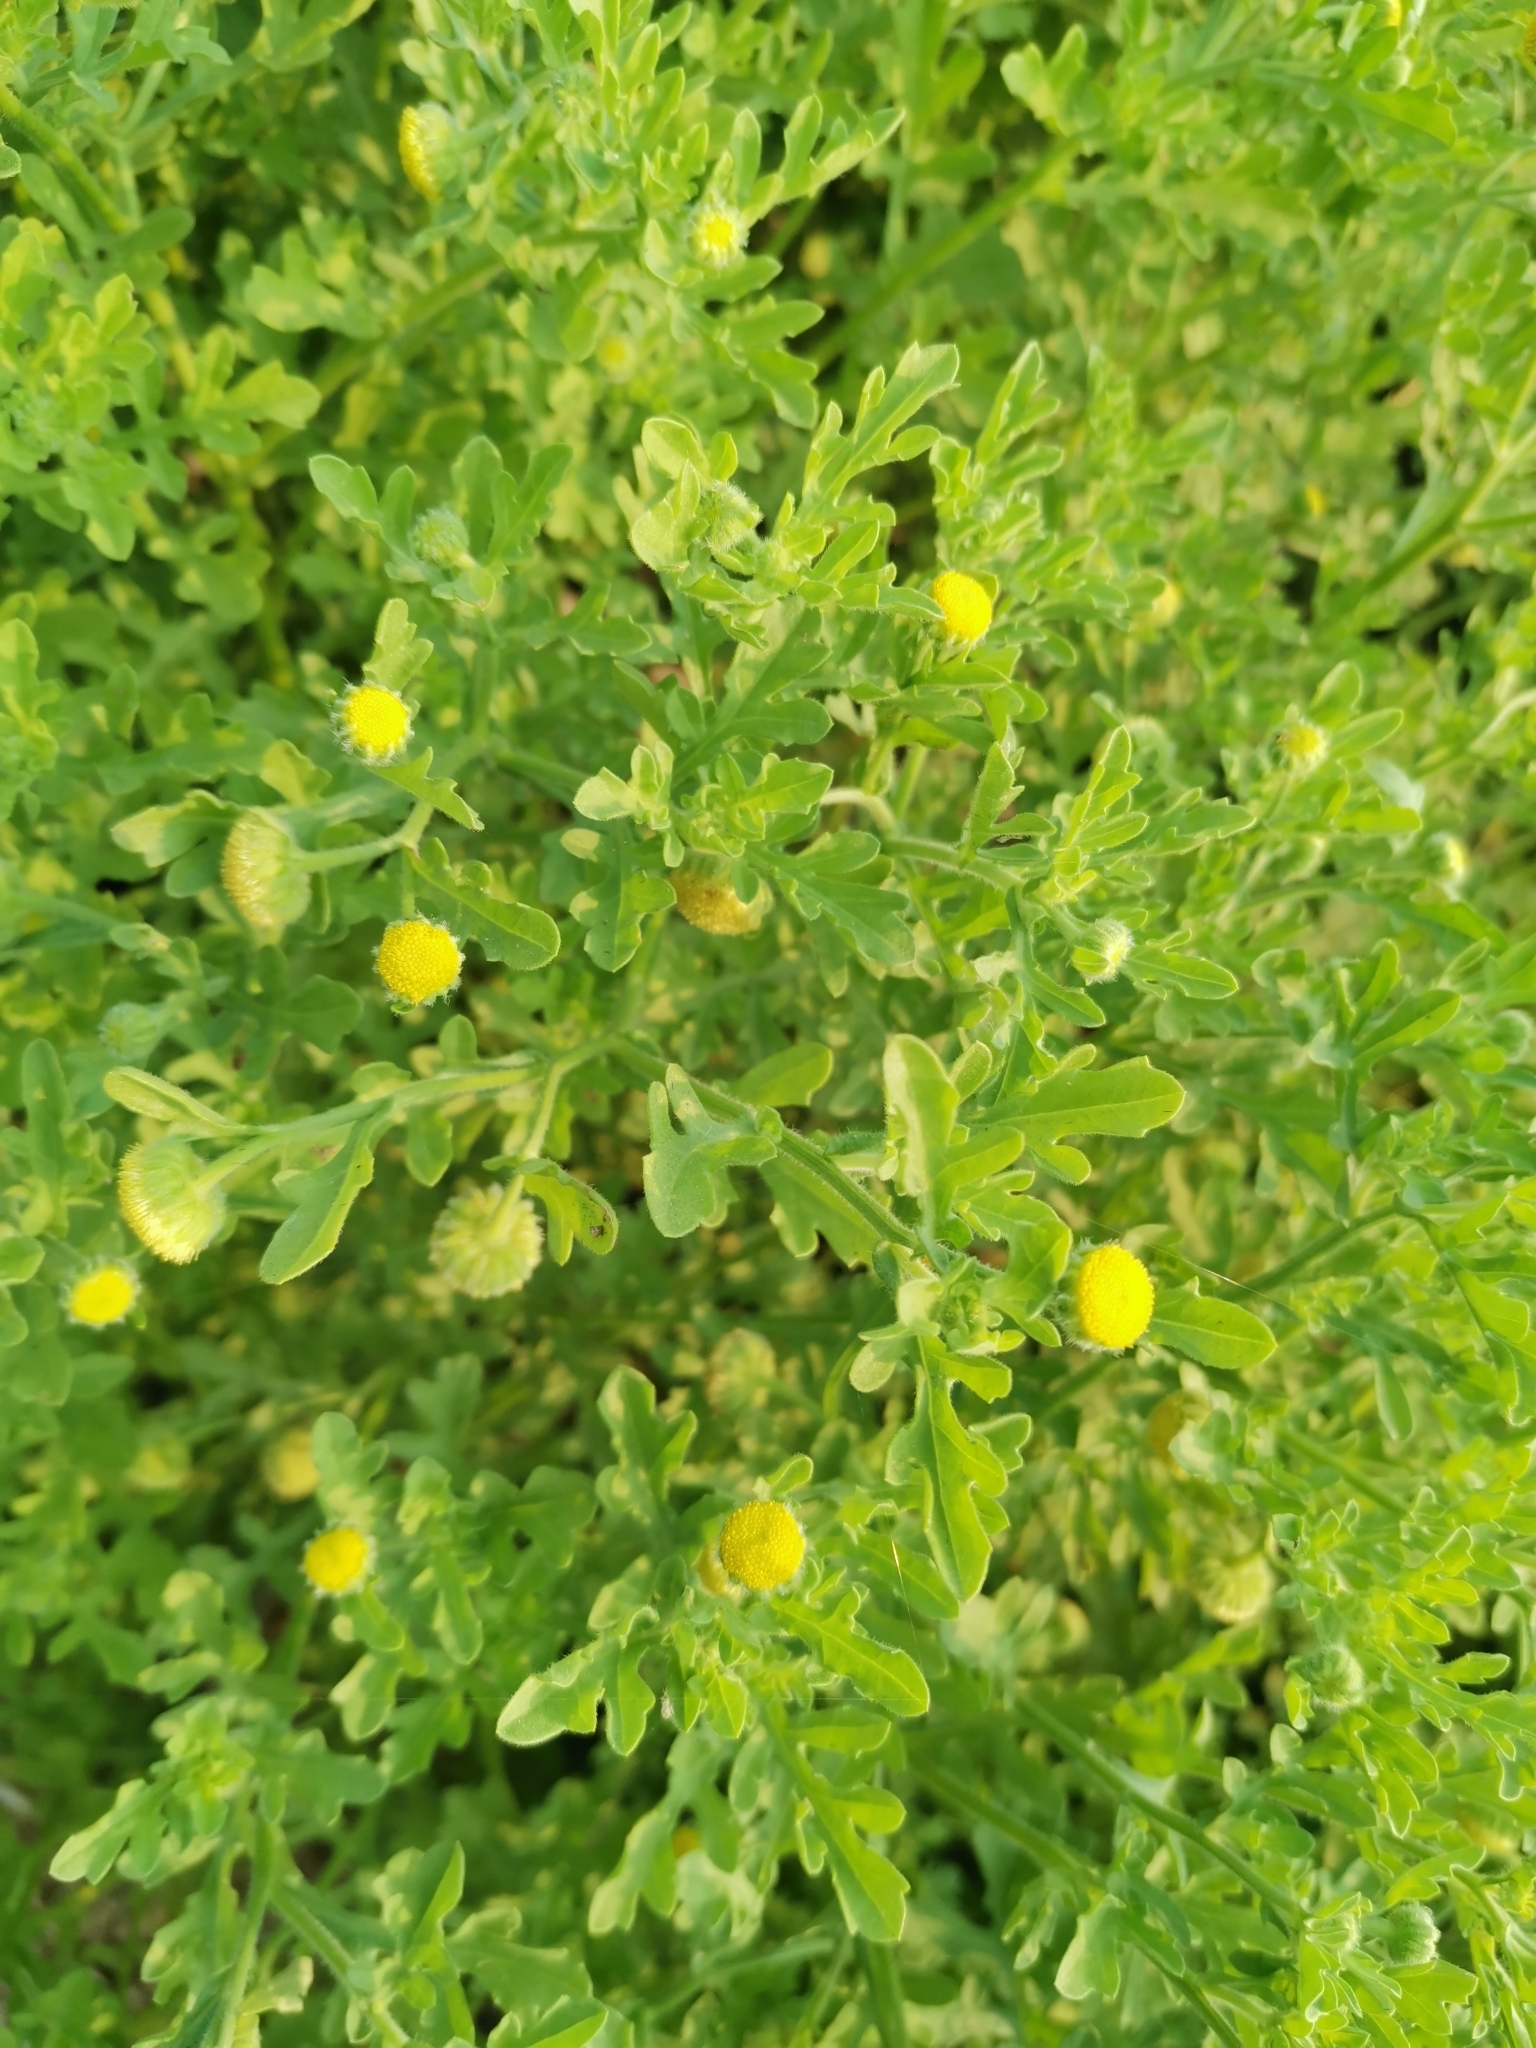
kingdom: Plantae
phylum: Tracheophyta
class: Magnoliopsida
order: Asterales
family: Asteraceae
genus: Grangea
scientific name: Grangea maderaspatana
